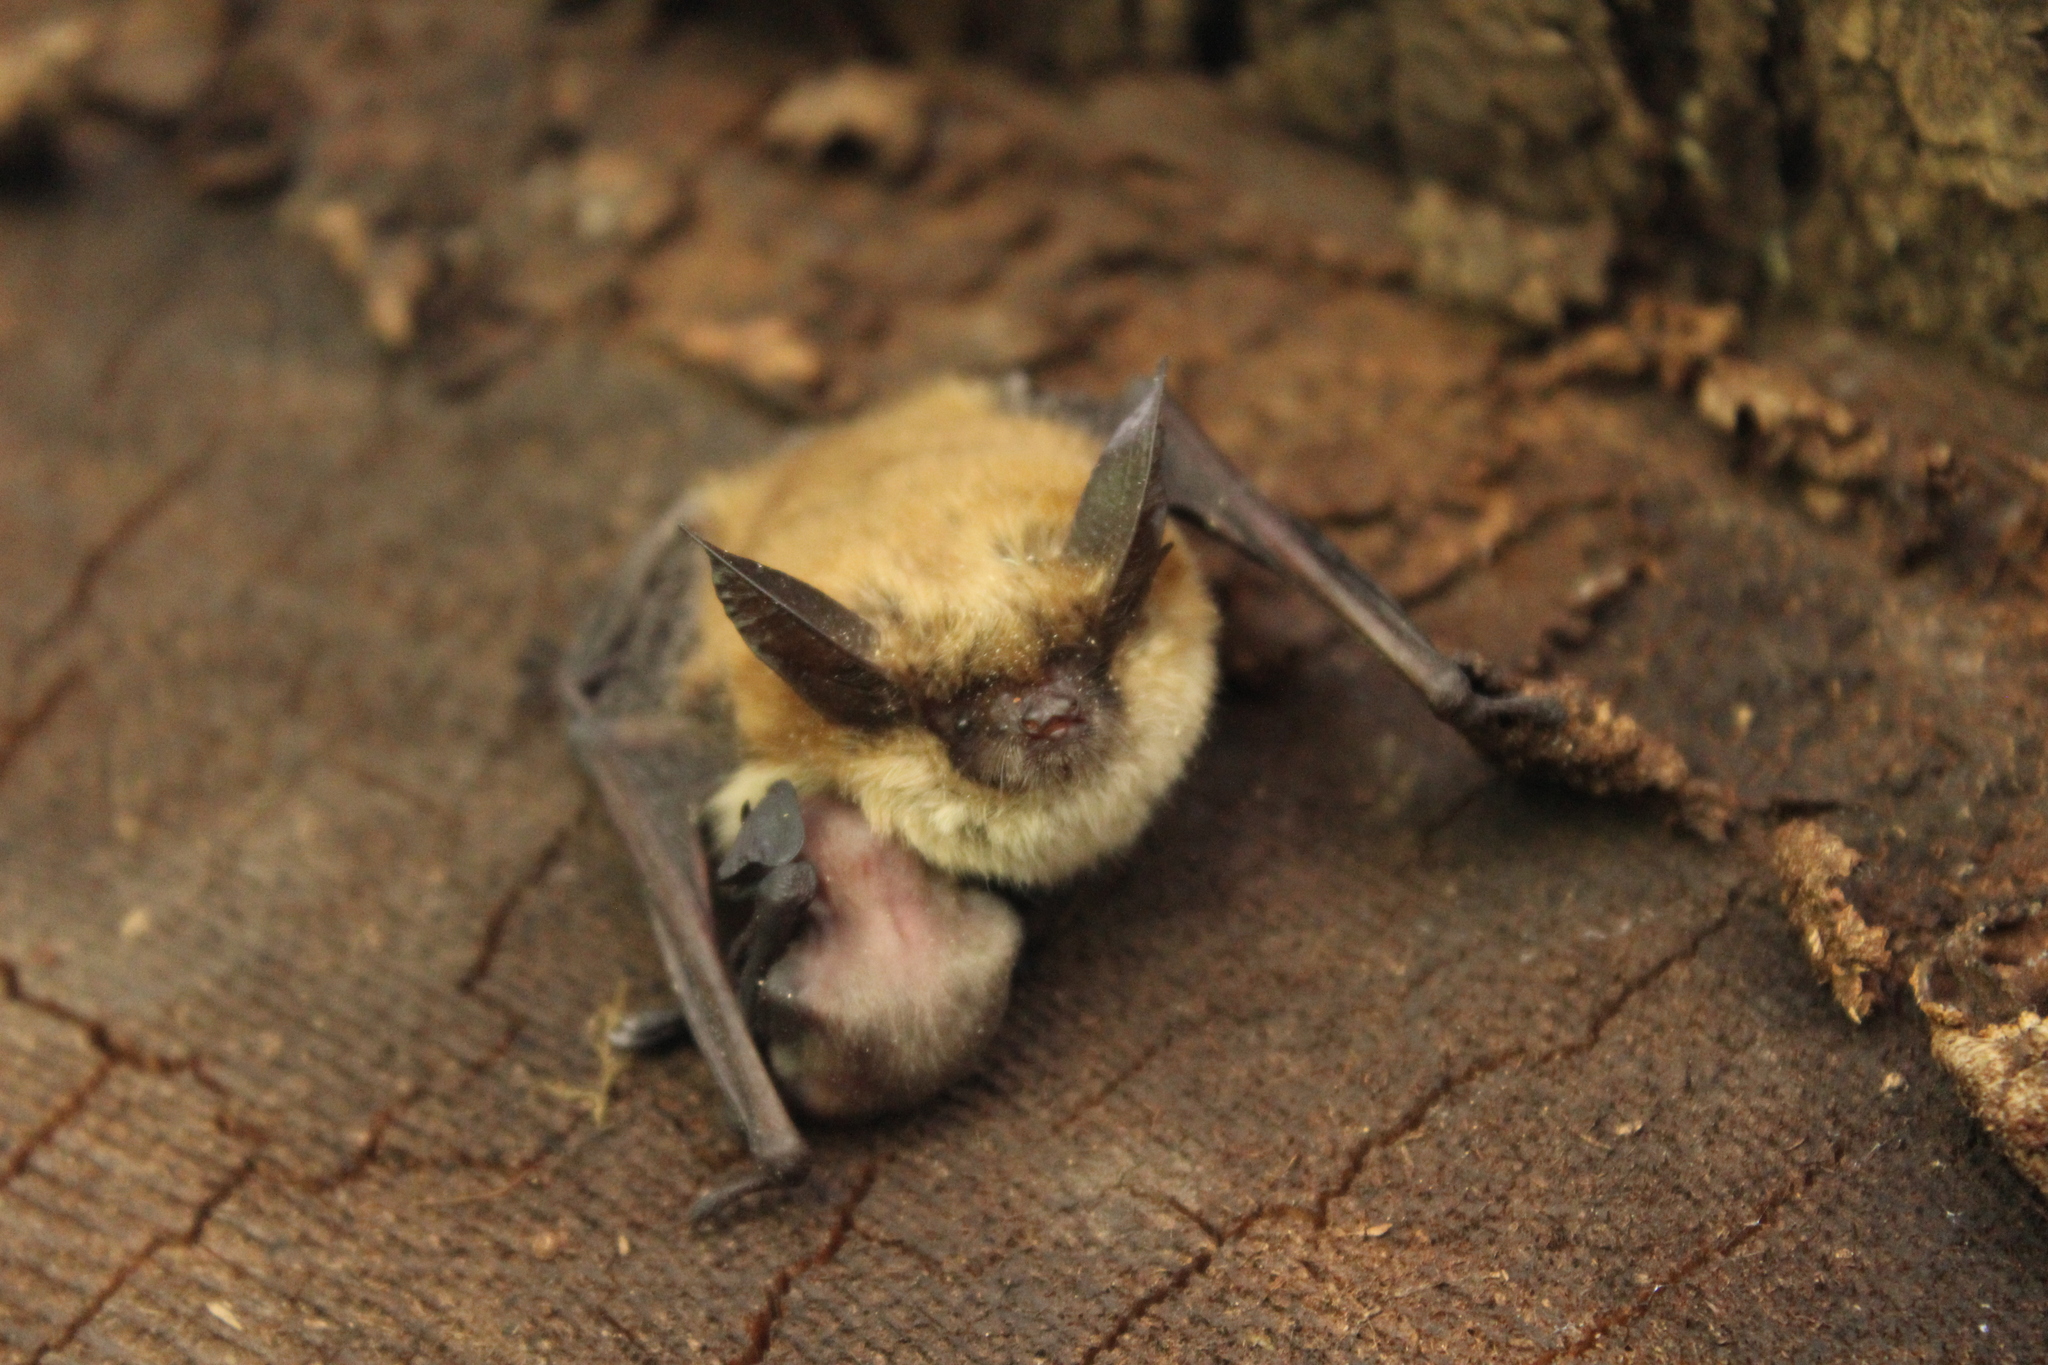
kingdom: Animalia
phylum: Chordata
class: Mammalia
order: Chiroptera
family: Vespertilionidae
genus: Myotis
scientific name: Myotis evotis
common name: Long-eared myotis
